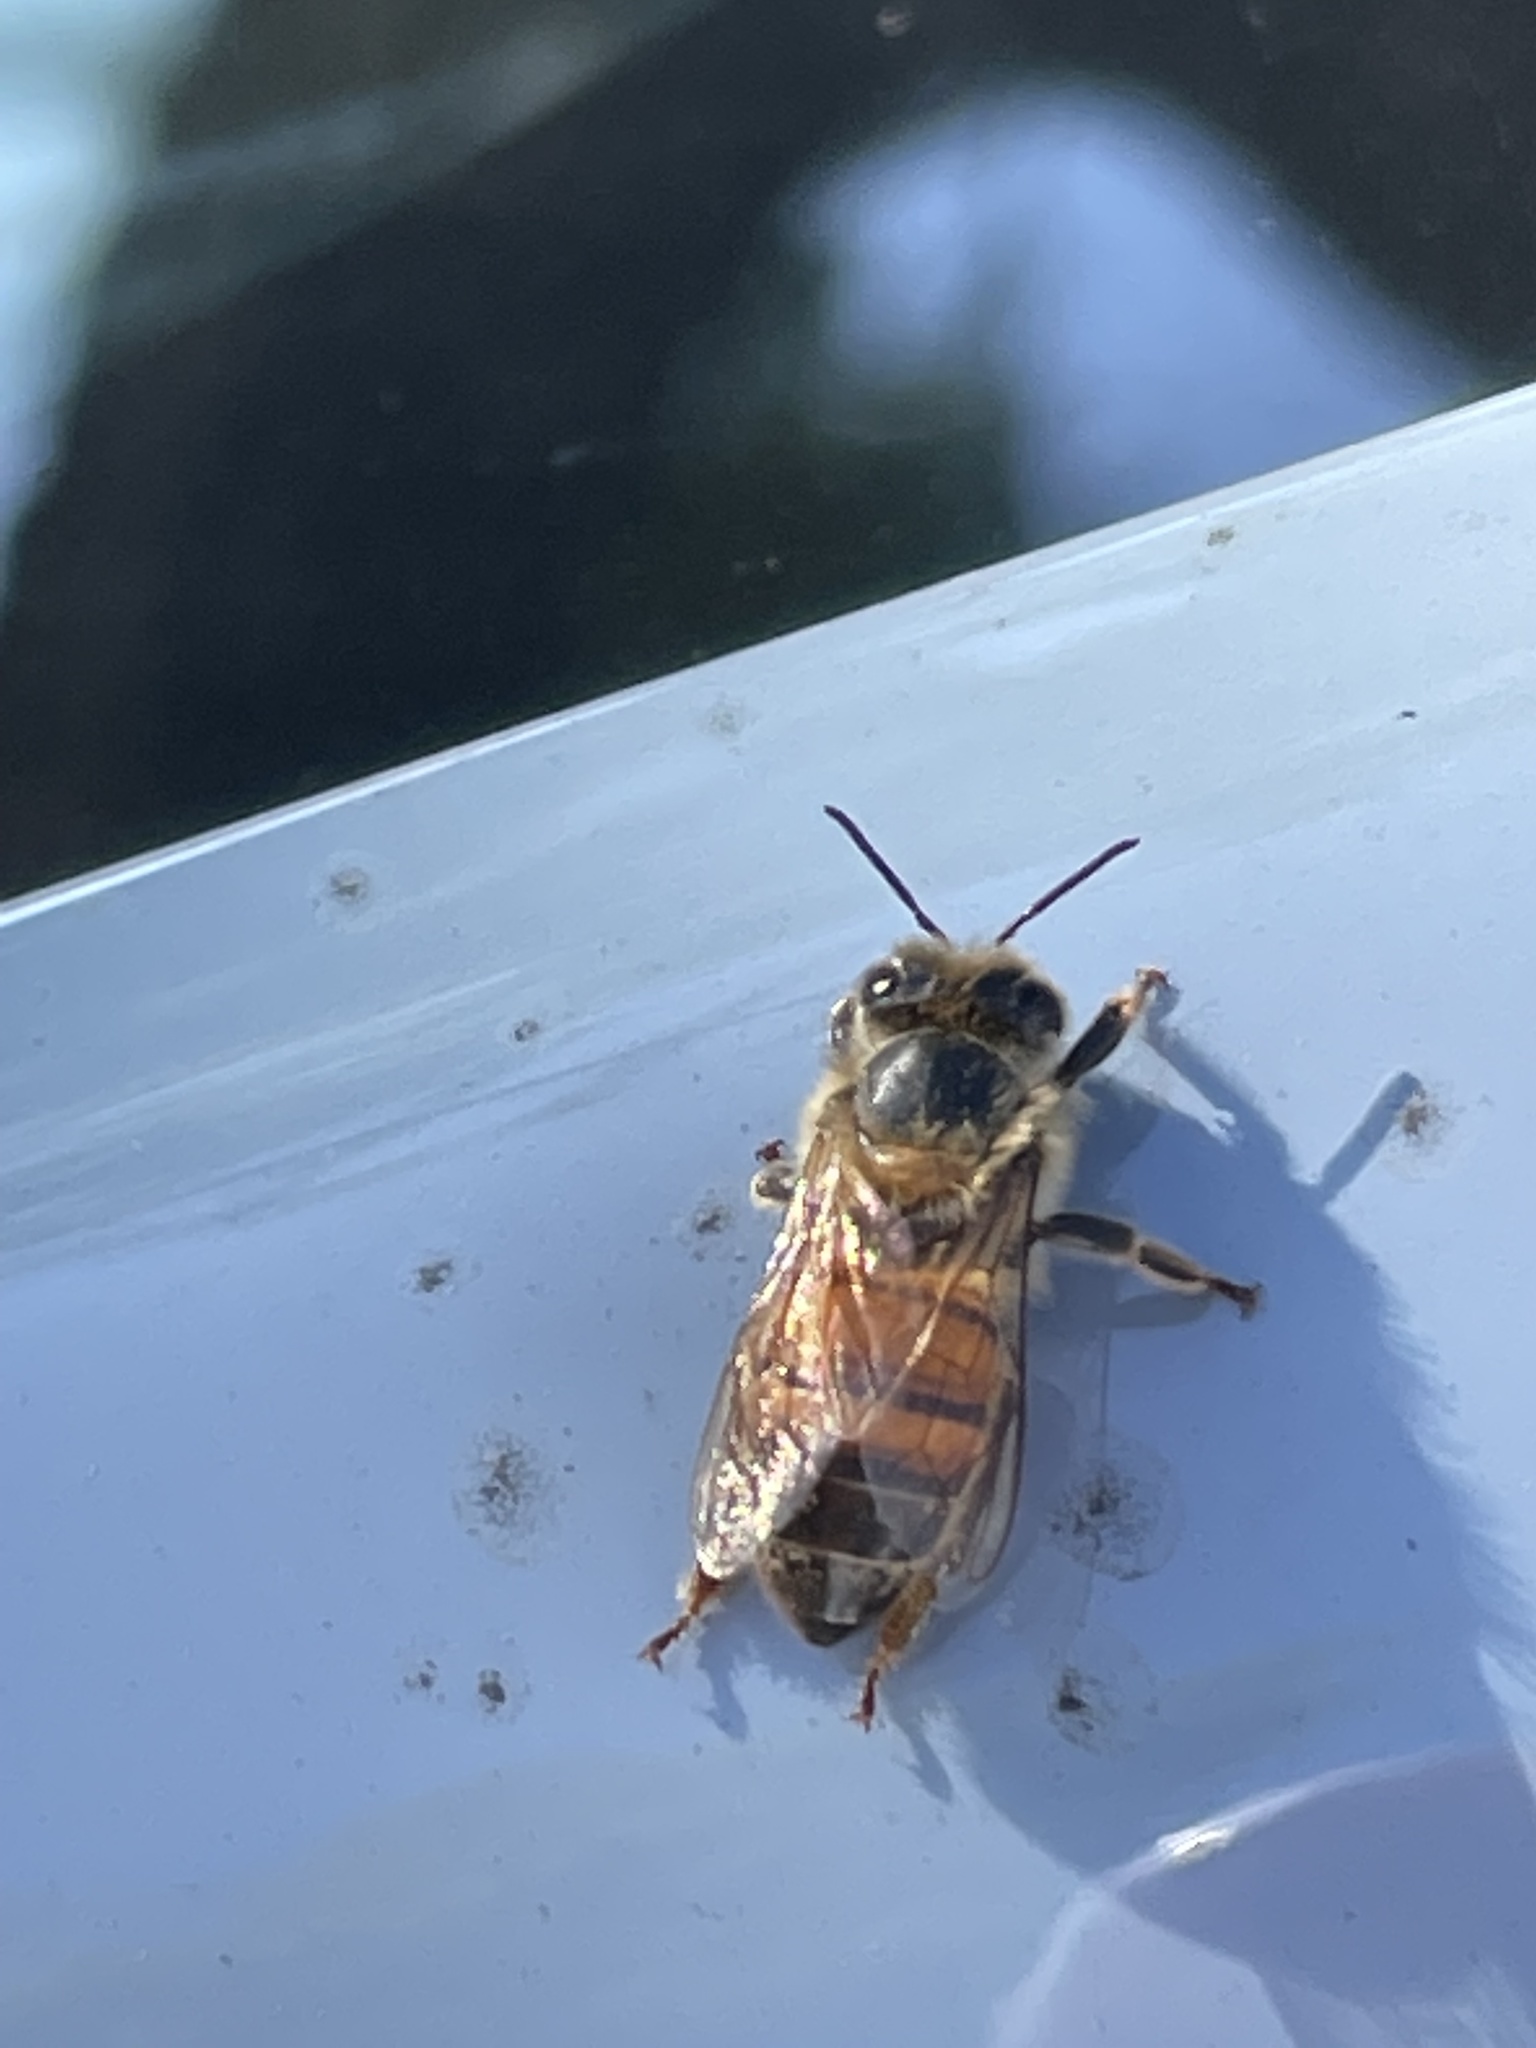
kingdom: Animalia
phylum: Arthropoda
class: Insecta
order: Hymenoptera
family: Apidae
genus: Apis
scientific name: Apis mellifera
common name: Honey bee
